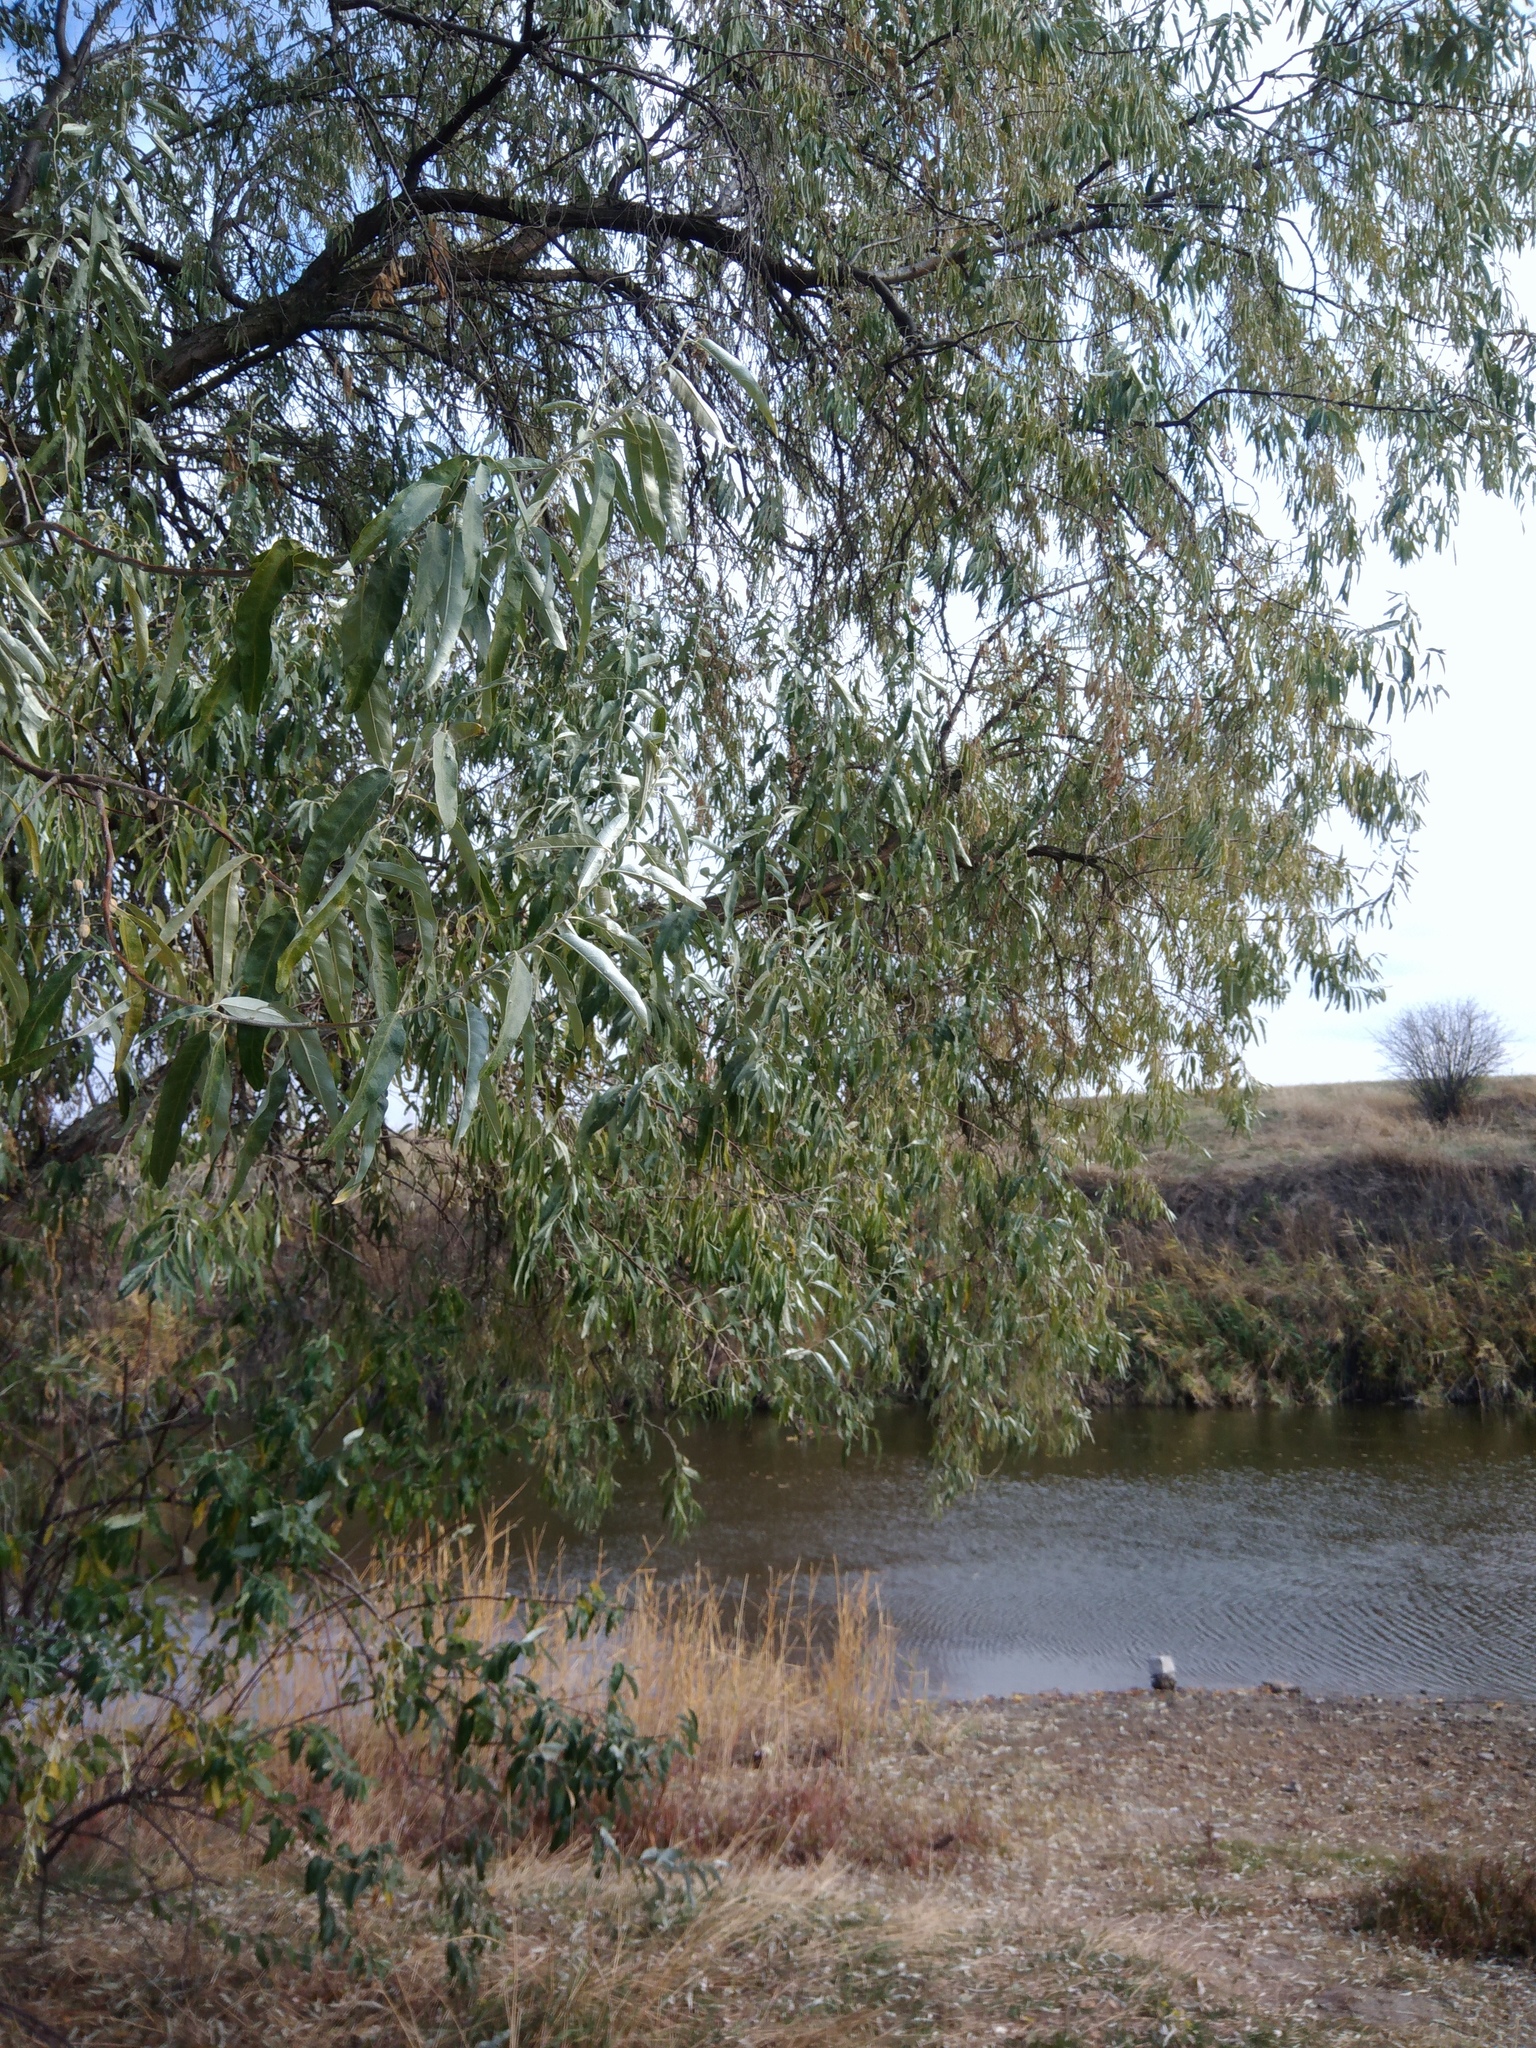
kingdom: Plantae
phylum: Tracheophyta
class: Magnoliopsida
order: Rosales
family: Elaeagnaceae
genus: Elaeagnus
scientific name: Elaeagnus angustifolia
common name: Russian olive
